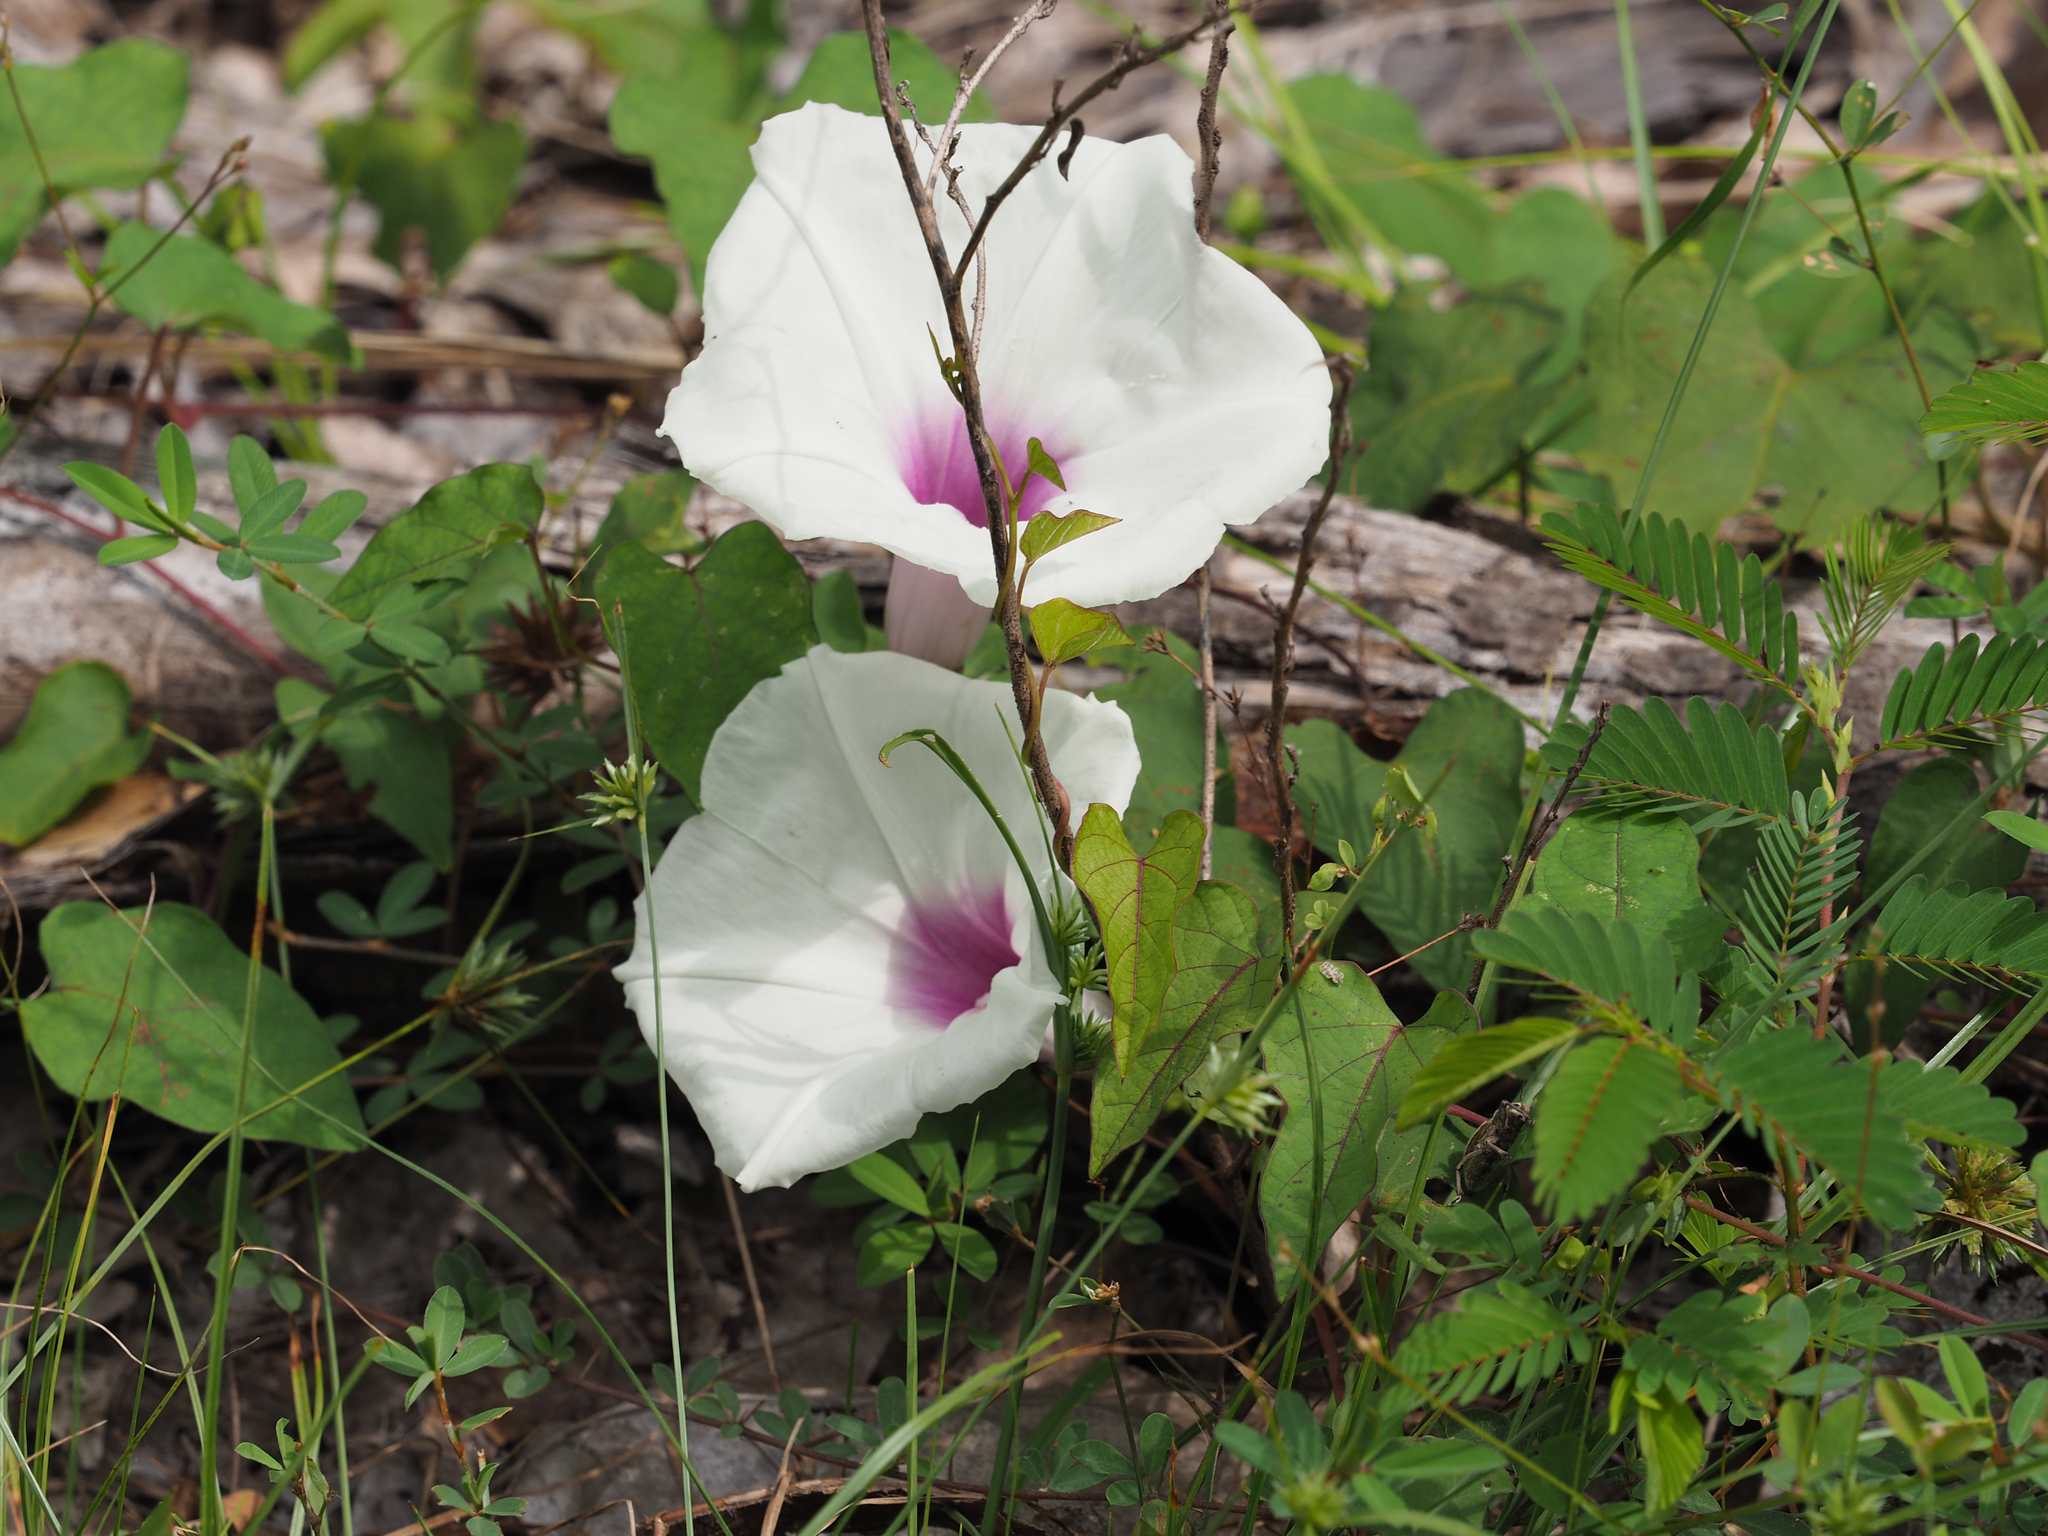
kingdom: Plantae
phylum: Tracheophyta
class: Magnoliopsida
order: Solanales
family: Convolvulaceae
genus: Ipomoea
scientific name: Ipomoea pandurata
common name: Man-of-the-earth
